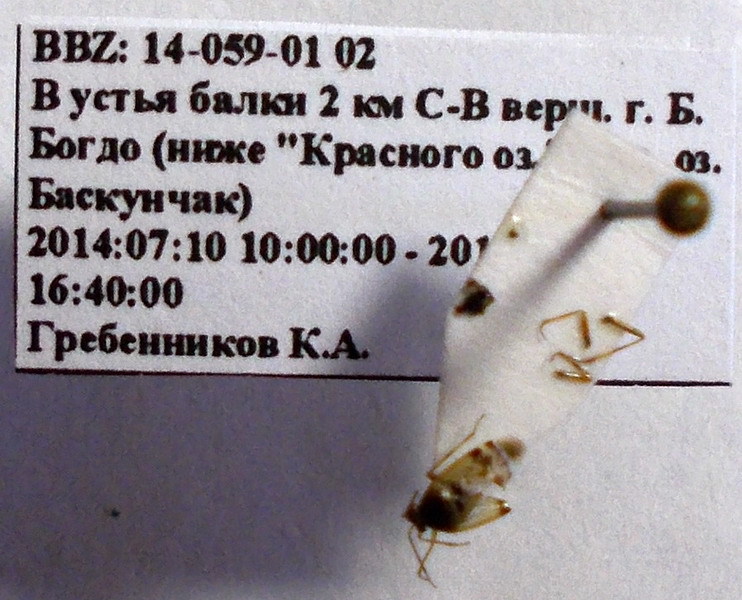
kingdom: Animalia
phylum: Arthropoda
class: Insecta
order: Hemiptera
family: Miridae
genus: Deraeocoris
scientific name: Deraeocoris serenus
